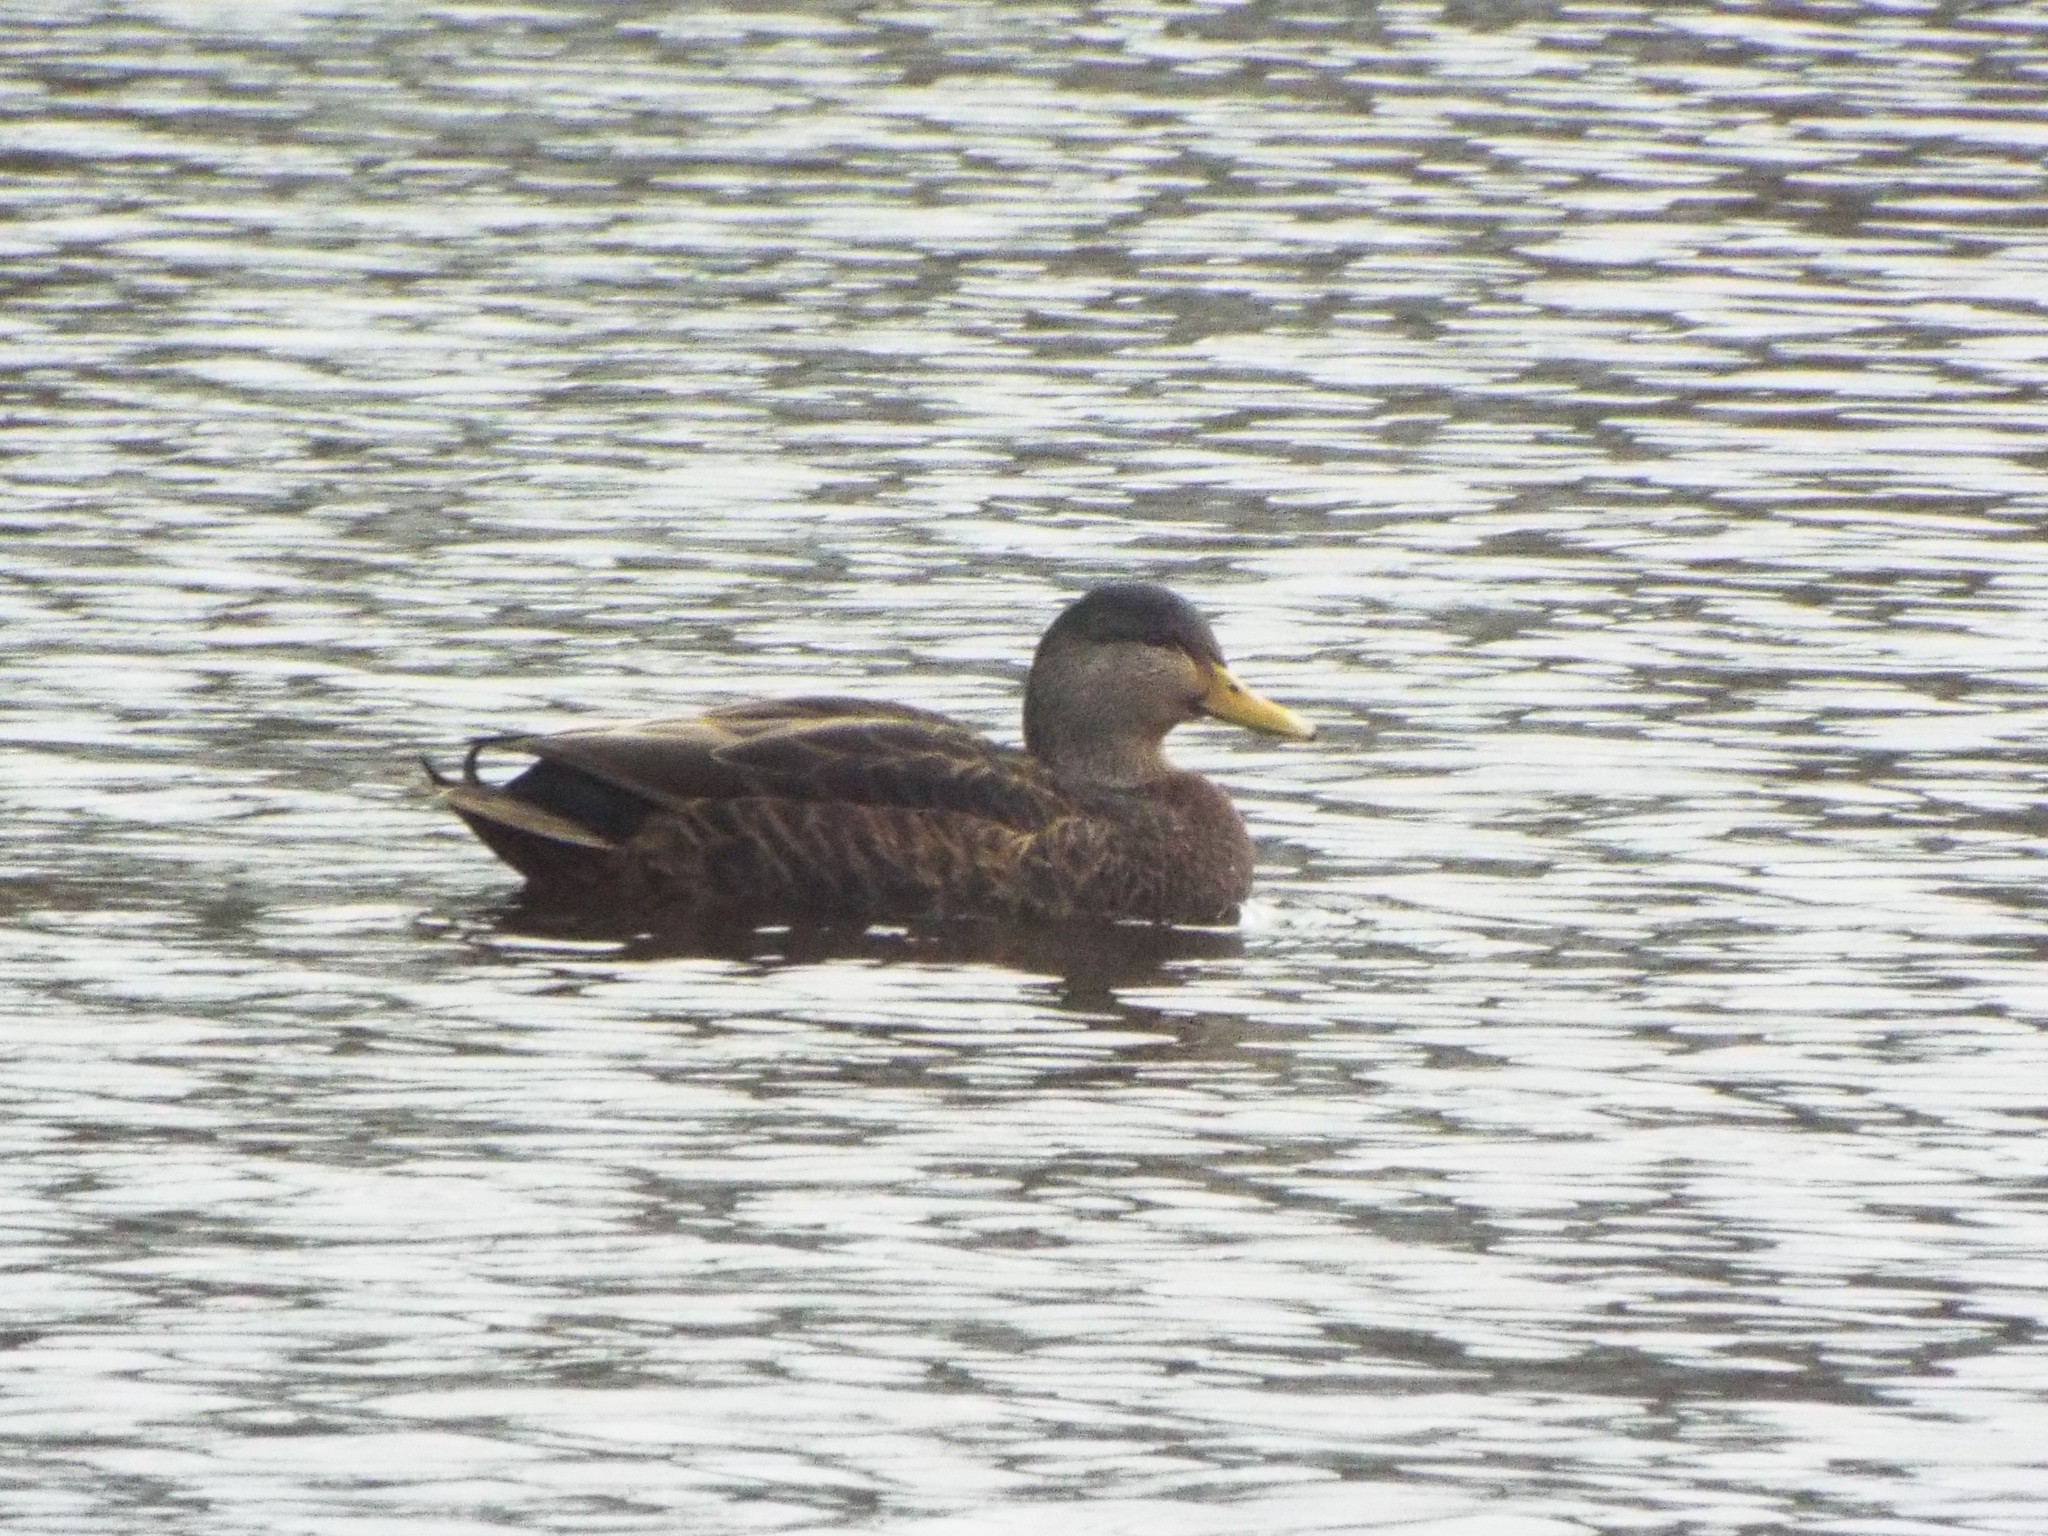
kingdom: Animalia
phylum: Chordata
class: Aves
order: Anseriformes
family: Anatidae
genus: Anas
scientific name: Anas
